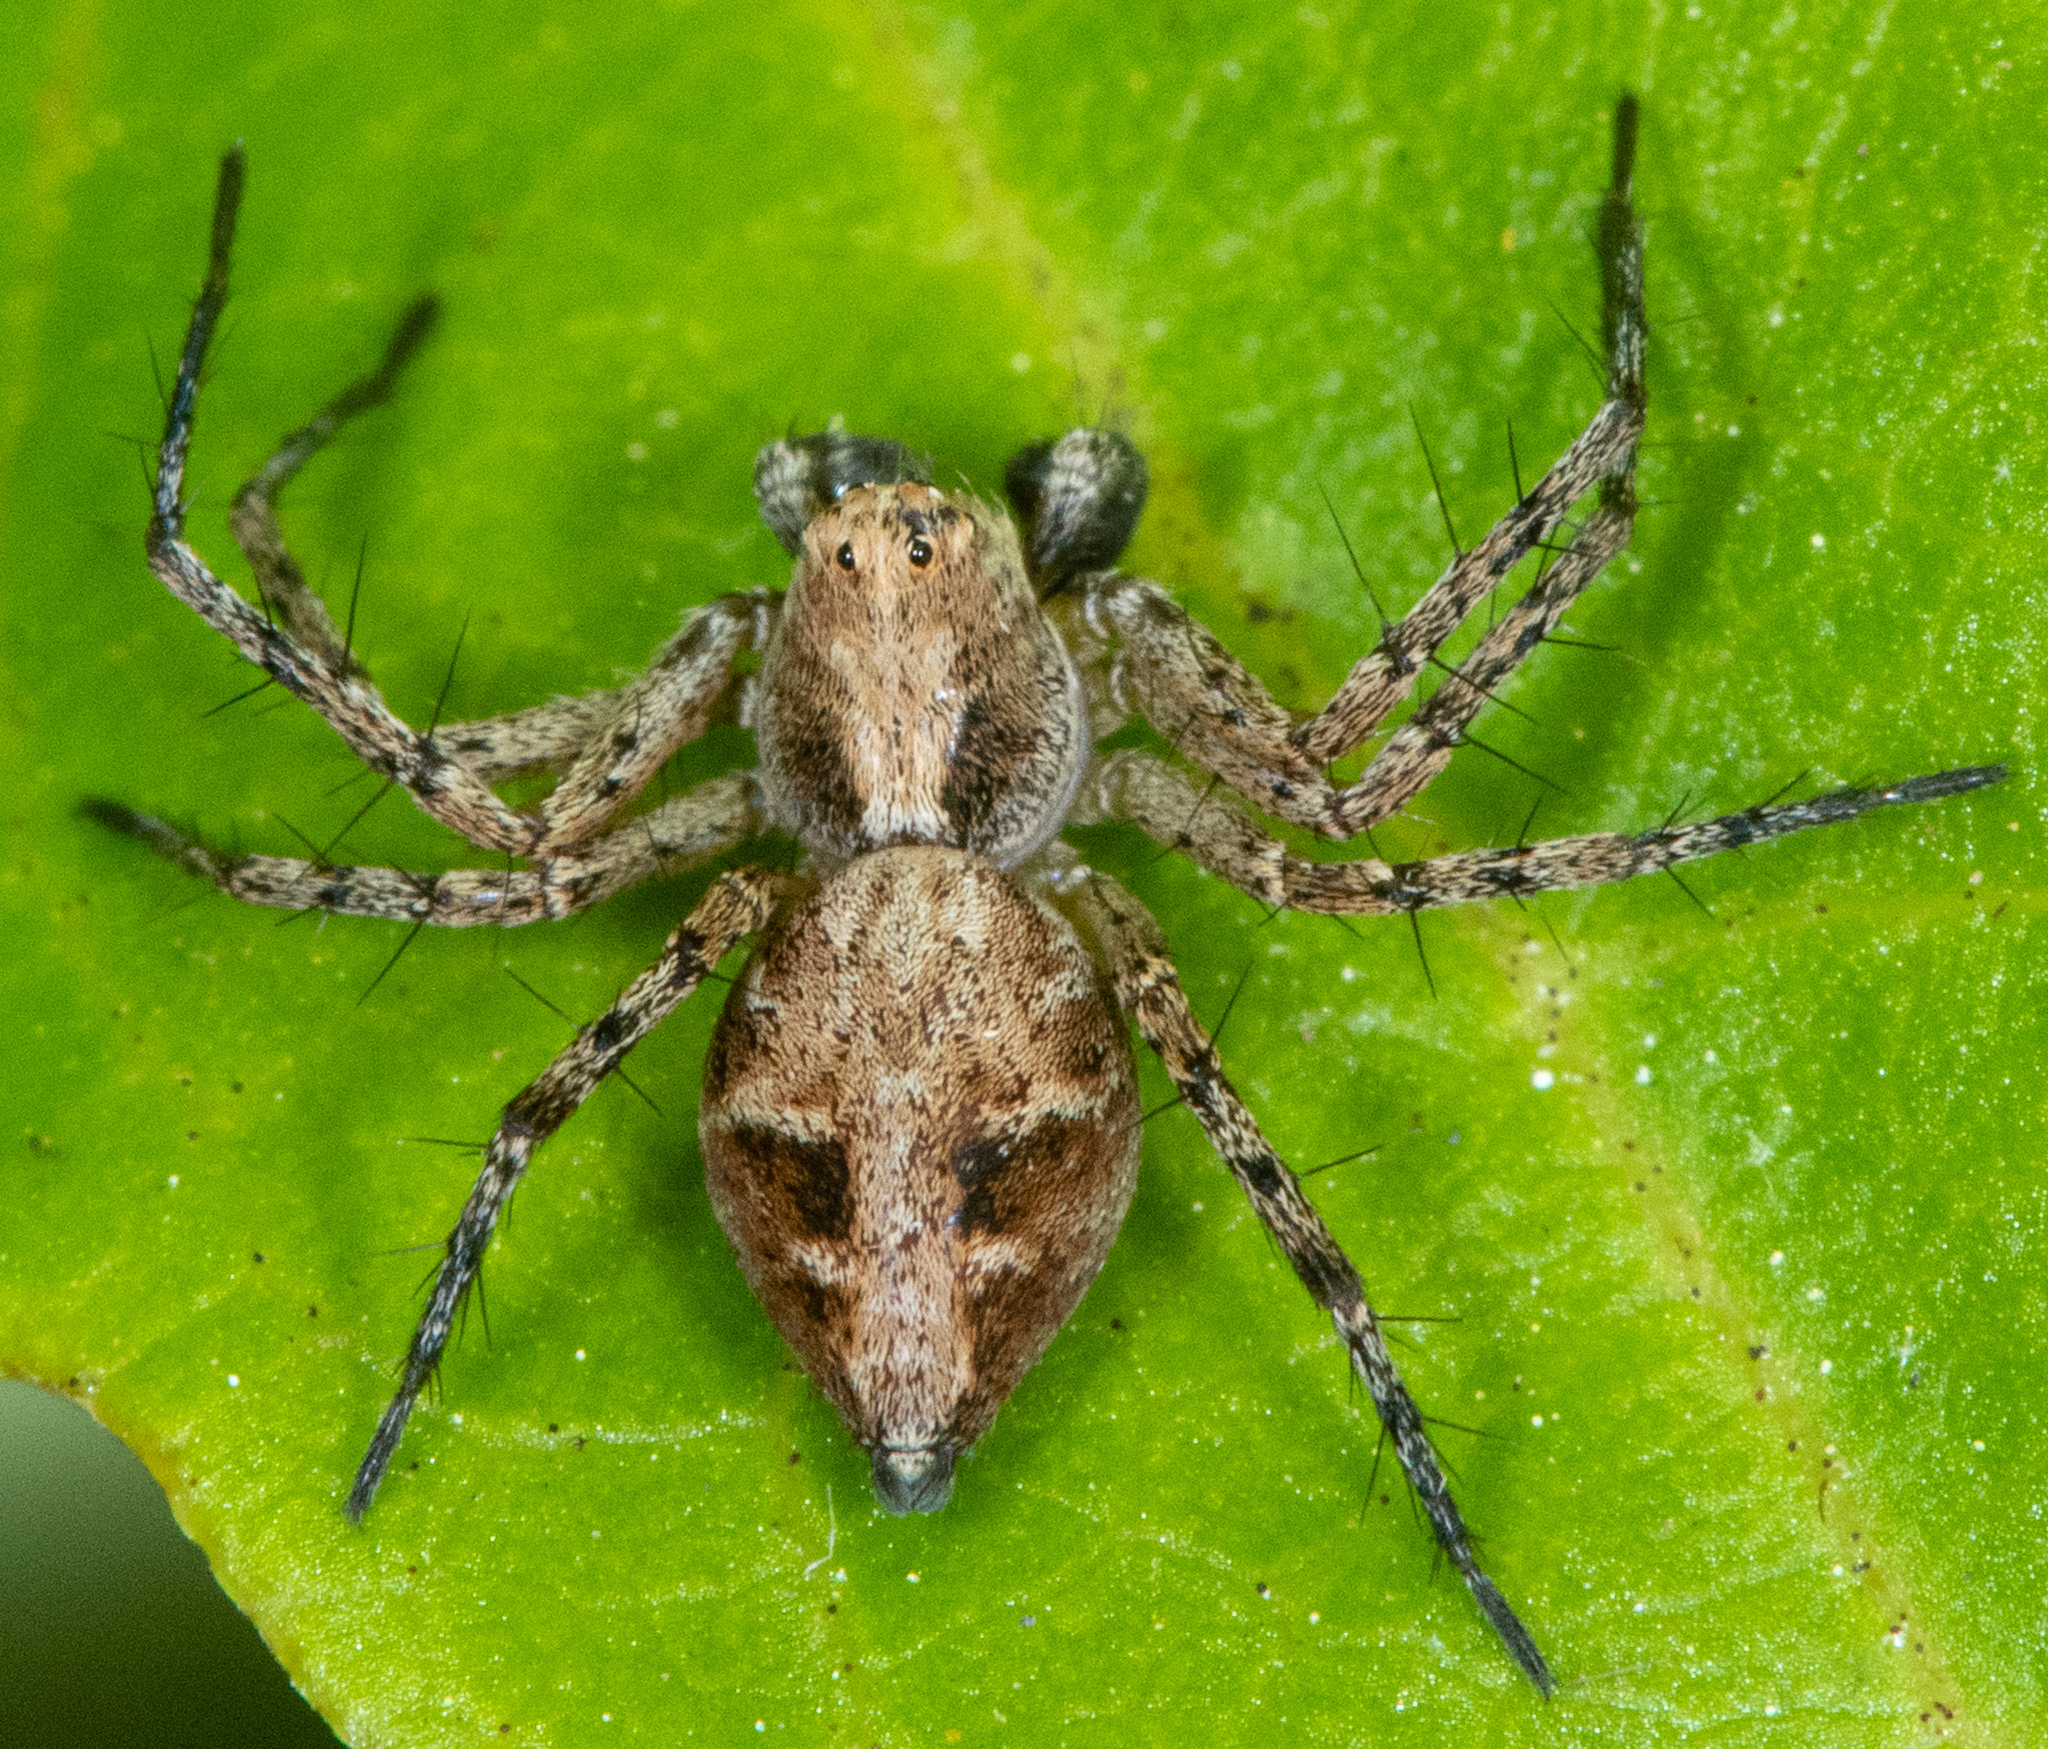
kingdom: Animalia
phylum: Arthropoda
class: Arachnida
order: Araneae
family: Oxyopidae
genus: Oxyopes
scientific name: Oxyopes scalaris
